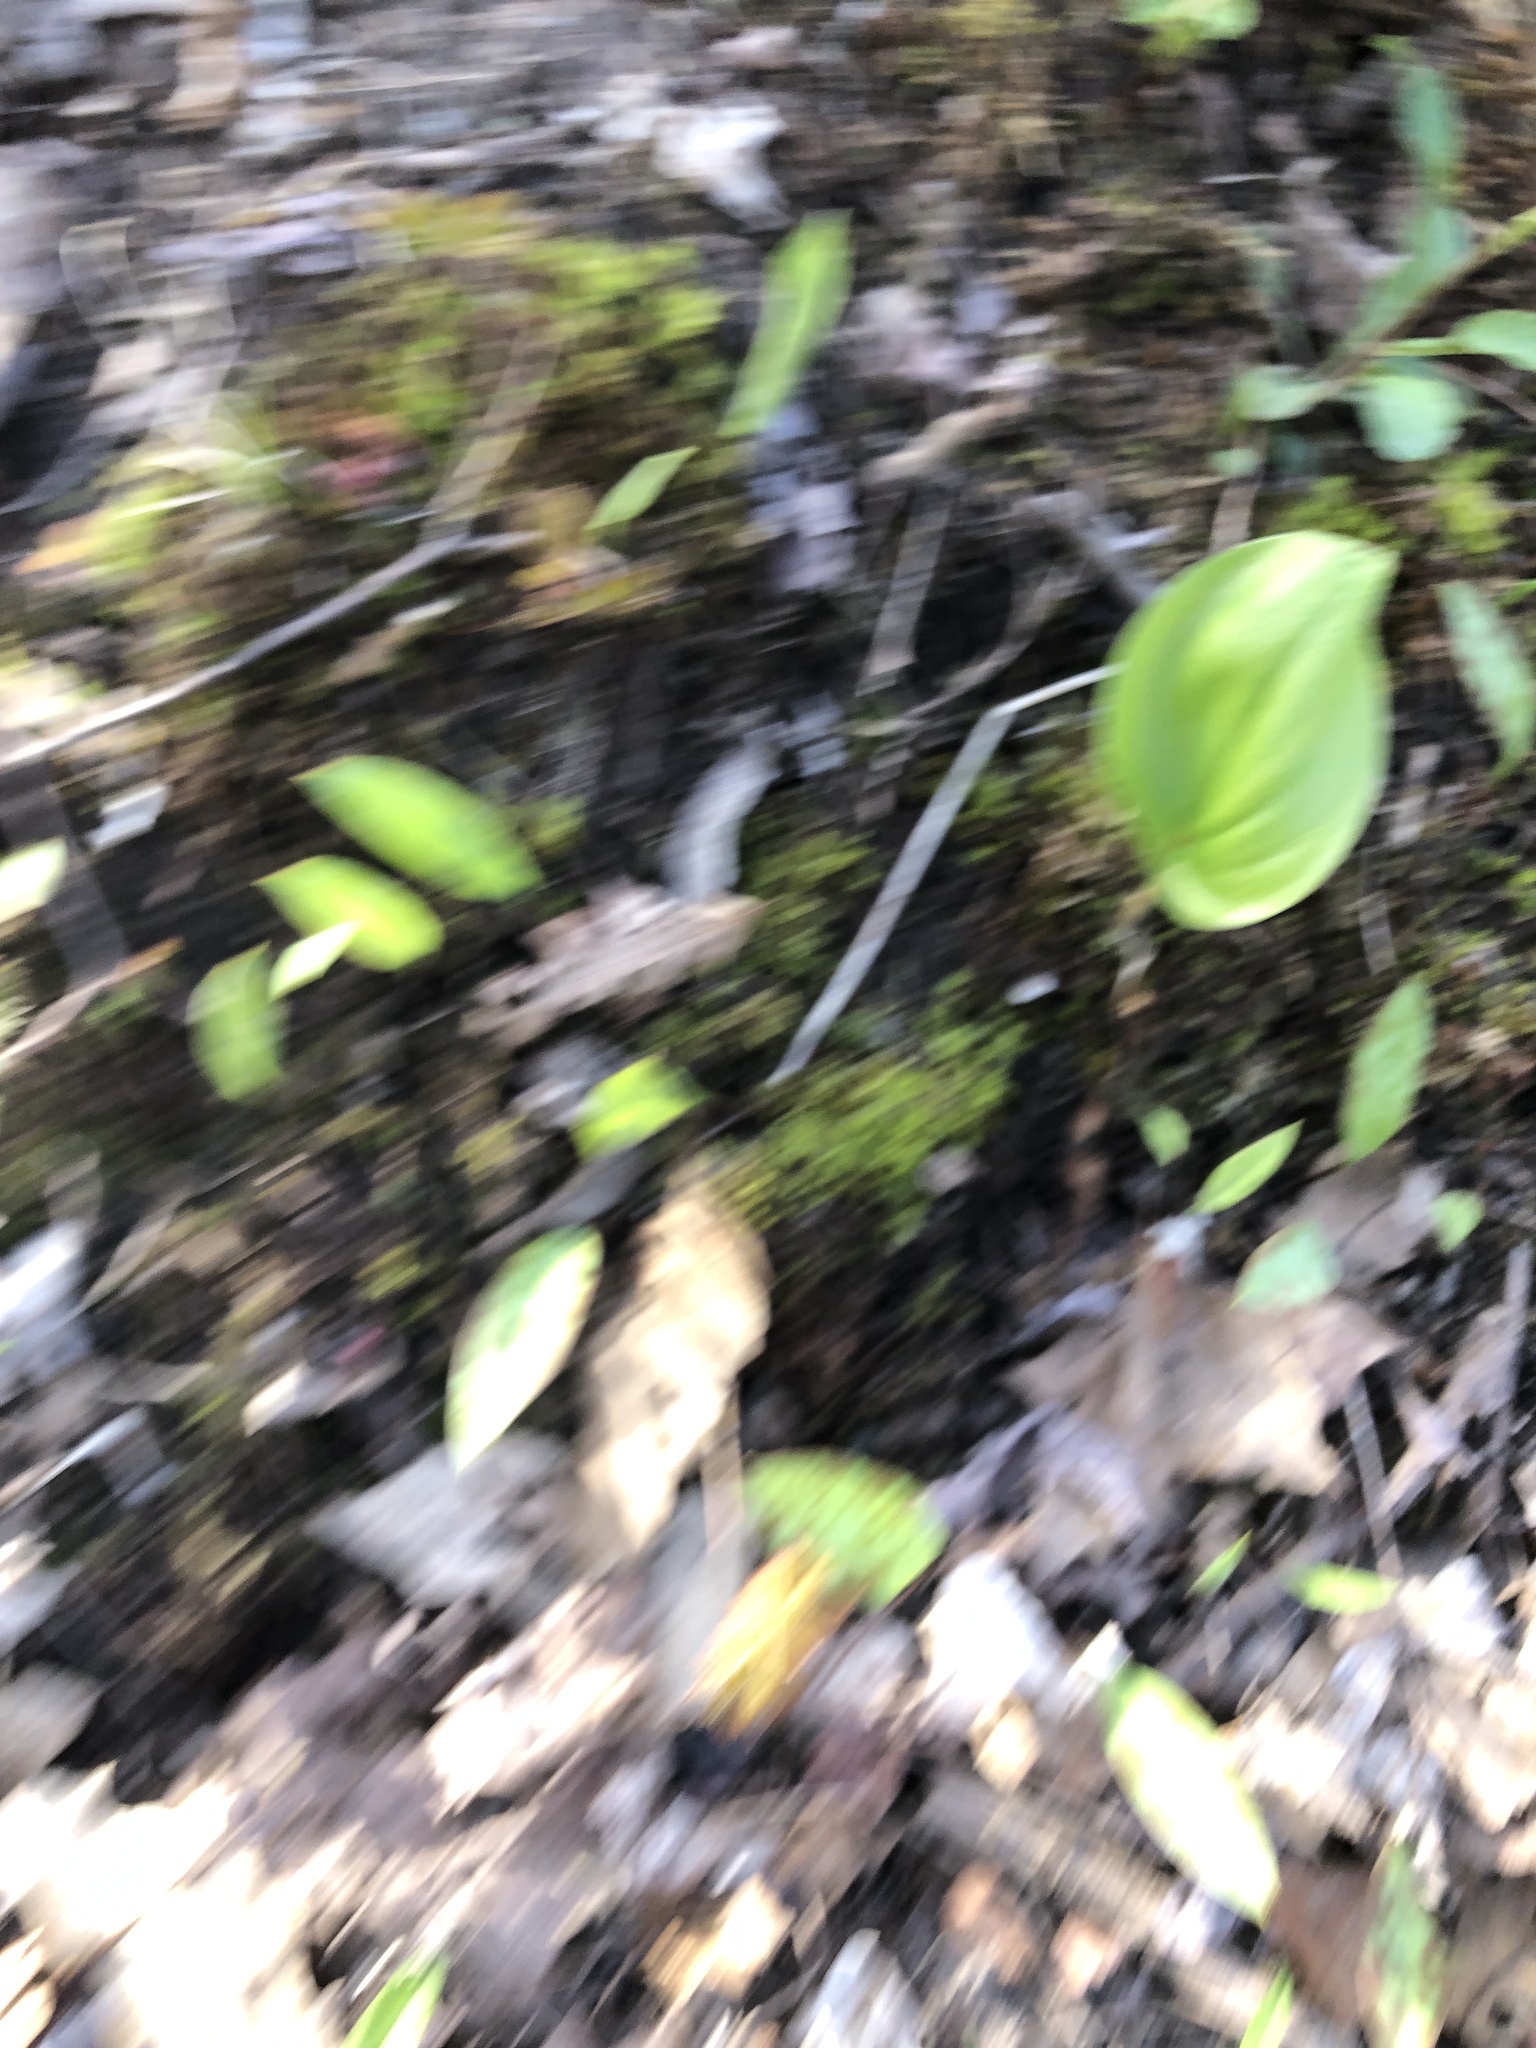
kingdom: Plantae
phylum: Tracheophyta
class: Liliopsida
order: Asparagales
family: Asparagaceae
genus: Maianthemum
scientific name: Maianthemum canadense
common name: False lily-of-the-valley
